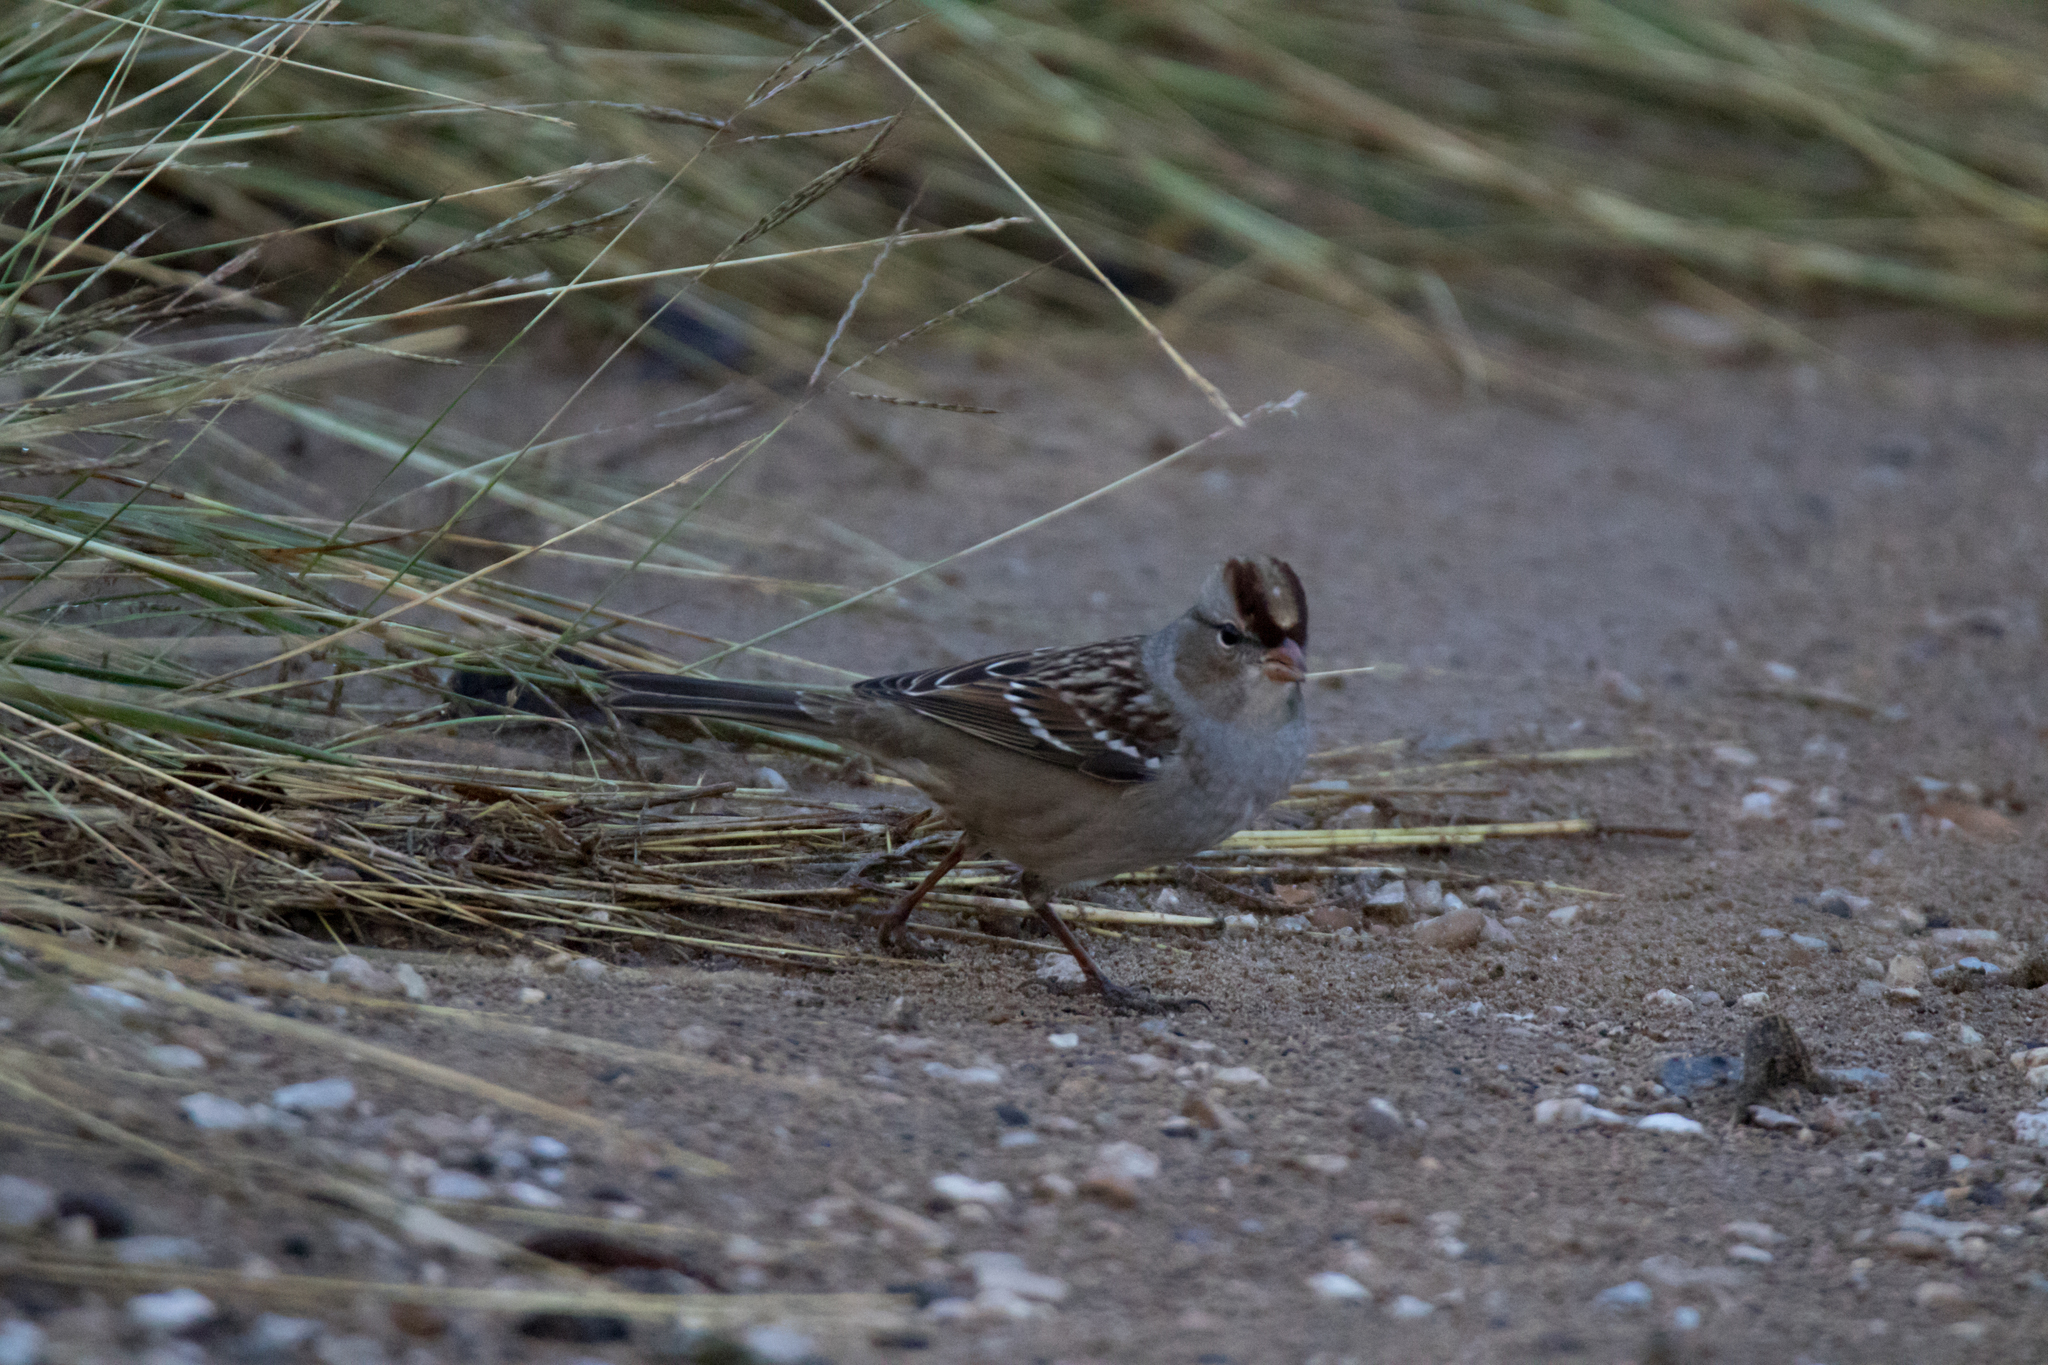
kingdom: Animalia
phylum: Chordata
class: Aves
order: Passeriformes
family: Passerellidae
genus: Zonotrichia
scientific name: Zonotrichia leucophrys
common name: White-crowned sparrow
